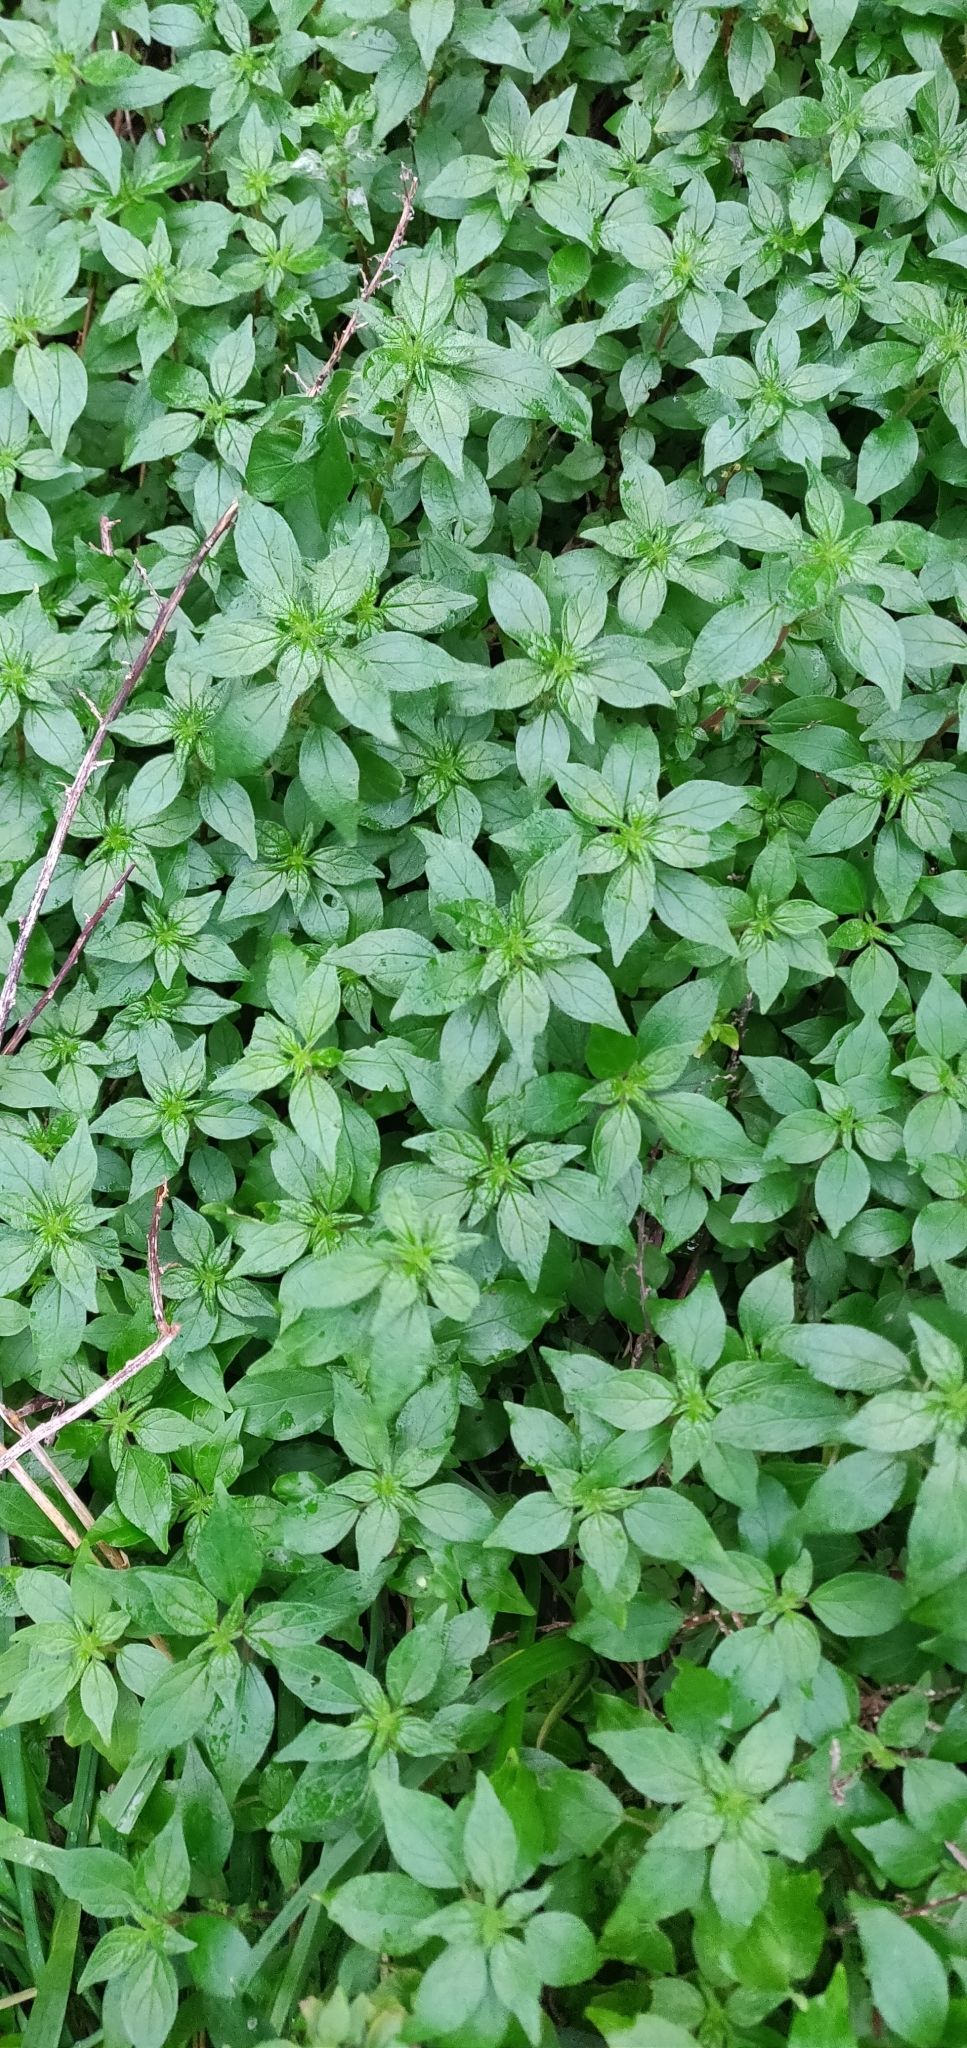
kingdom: Plantae
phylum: Tracheophyta
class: Magnoliopsida
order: Rosales
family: Urticaceae
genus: Parietaria
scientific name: Parietaria judaica
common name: Pellitory-of-the-wall
